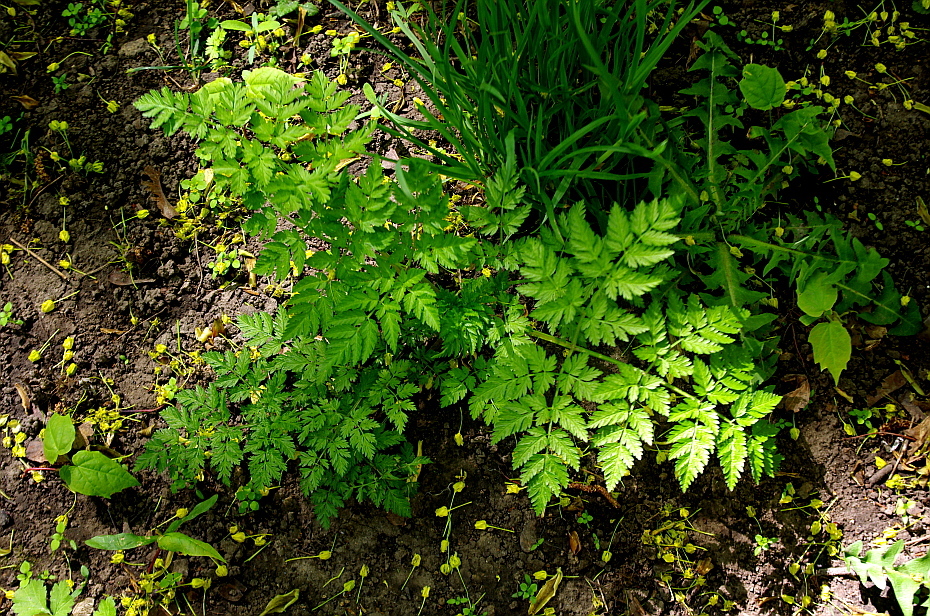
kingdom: Plantae
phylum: Tracheophyta
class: Magnoliopsida
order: Apiales
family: Apiaceae
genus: Anthriscus
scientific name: Anthriscus sylvestris
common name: Cow parsley
